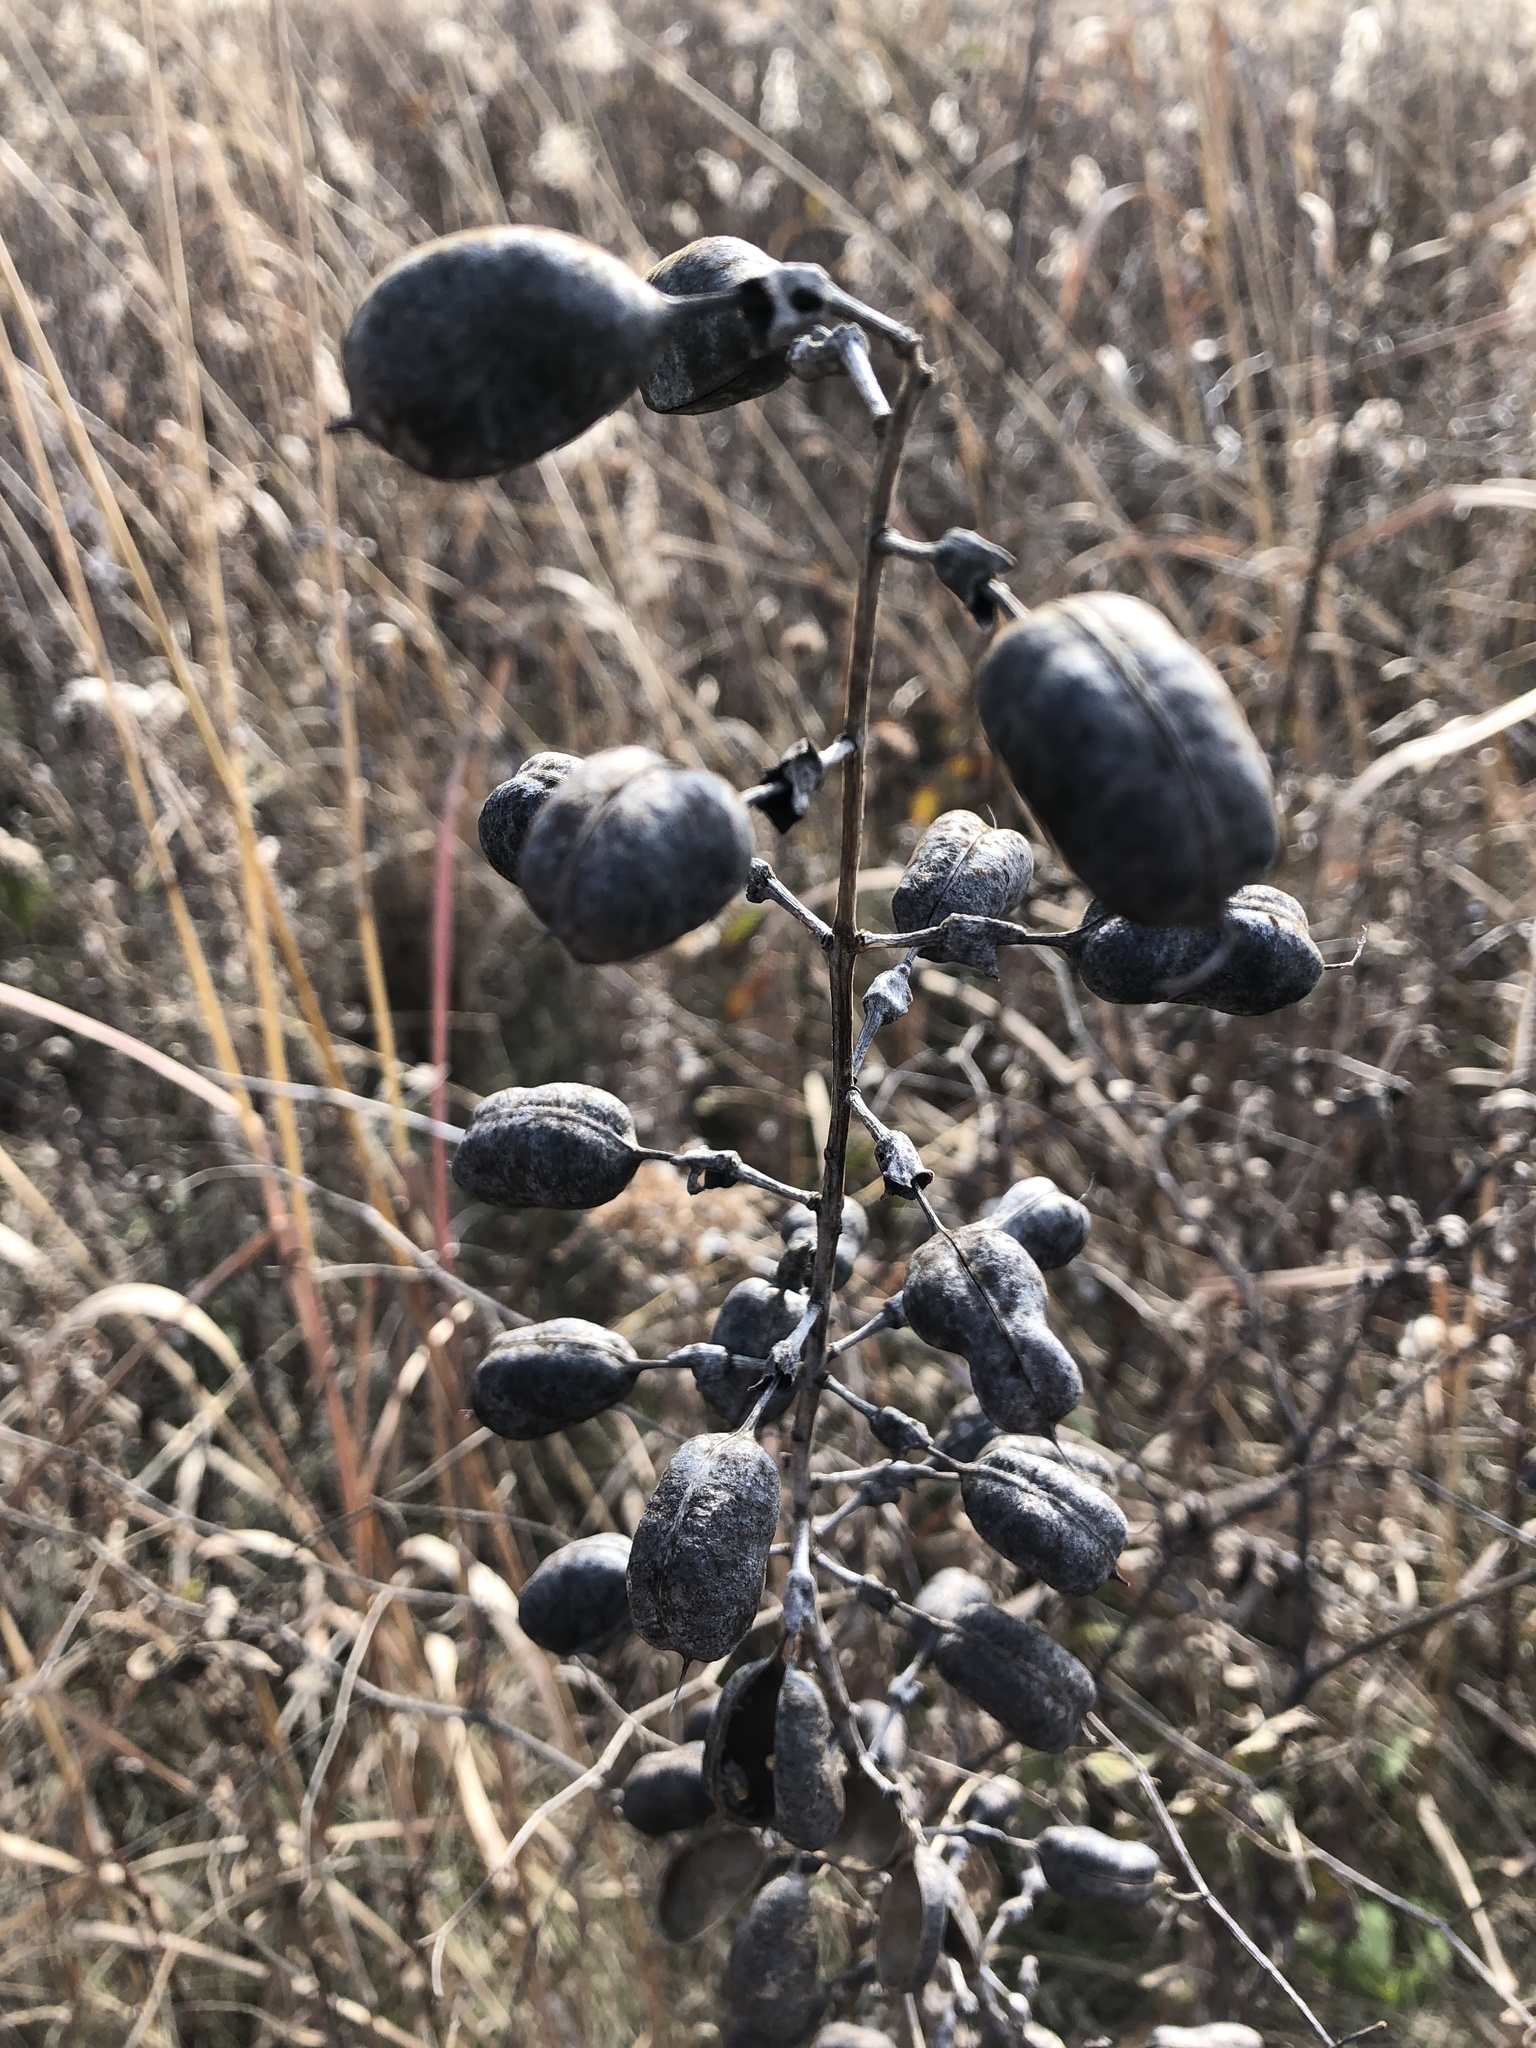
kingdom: Plantae
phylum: Tracheophyta
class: Magnoliopsida
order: Fabales
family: Fabaceae
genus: Baptisia
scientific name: Baptisia alba
